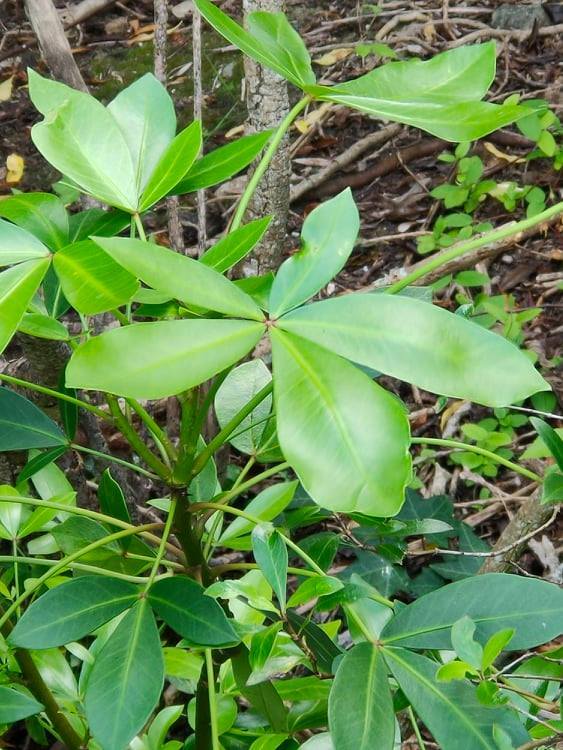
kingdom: Plantae
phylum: Tracheophyta
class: Magnoliopsida
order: Apiales
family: Araliaceae
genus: Pseudopanax
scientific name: Pseudopanax lessonii
